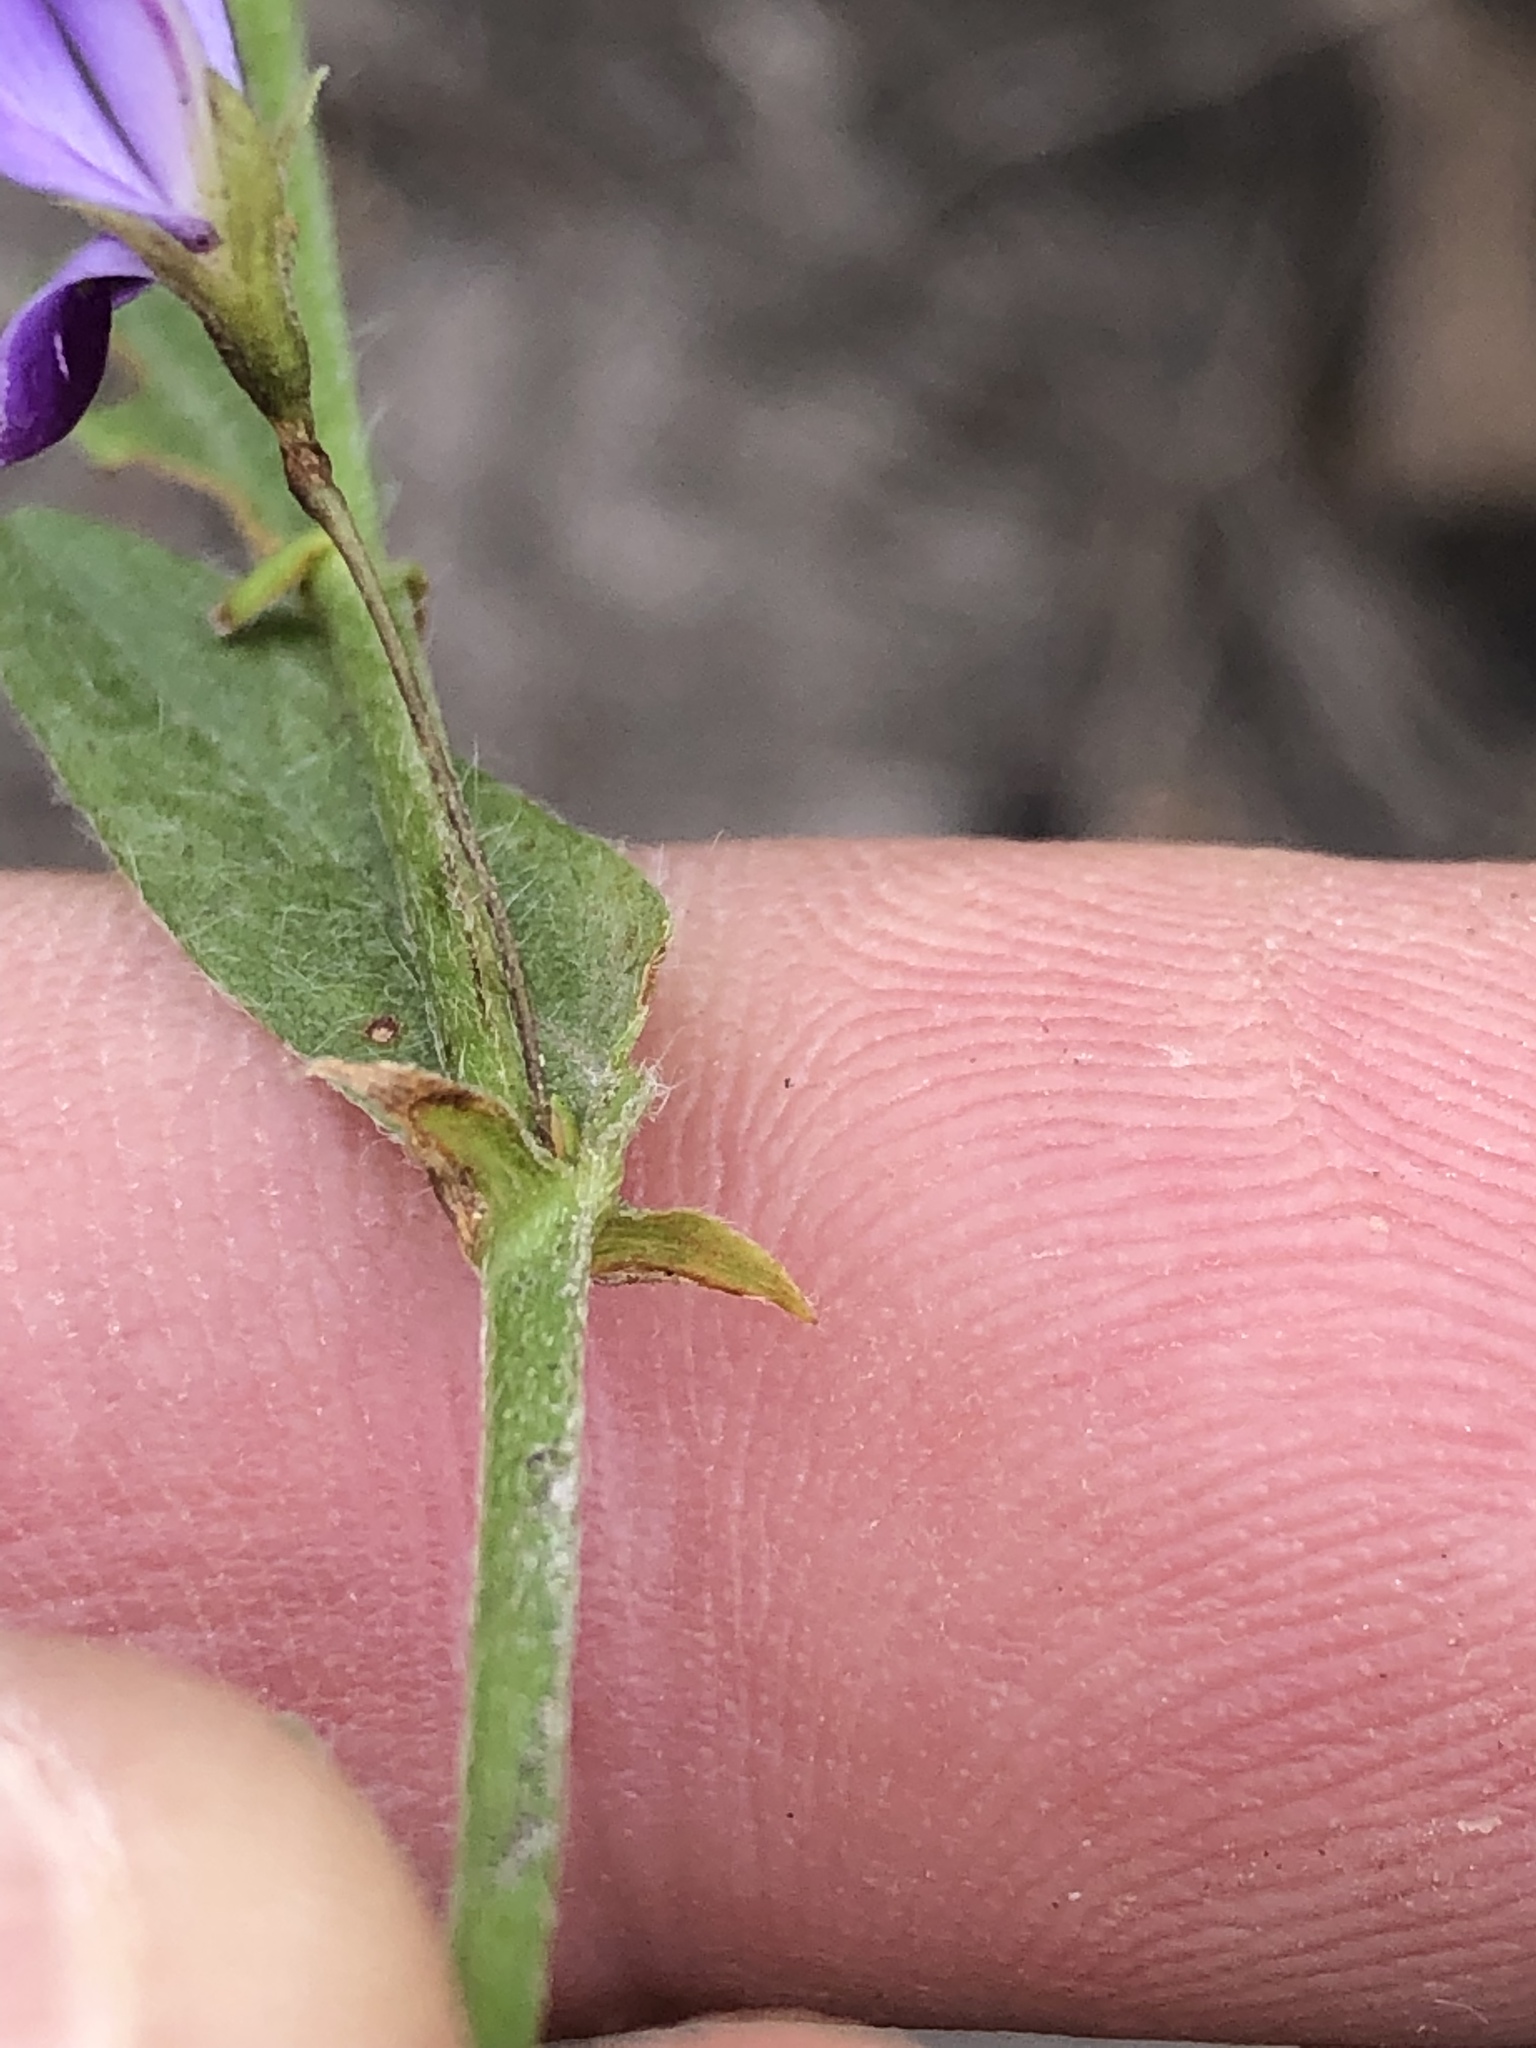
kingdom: Plantae
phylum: Tracheophyta
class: Magnoliopsida
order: Fabales
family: Fabaceae
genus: Psoralea
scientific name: Psoralea plauta
